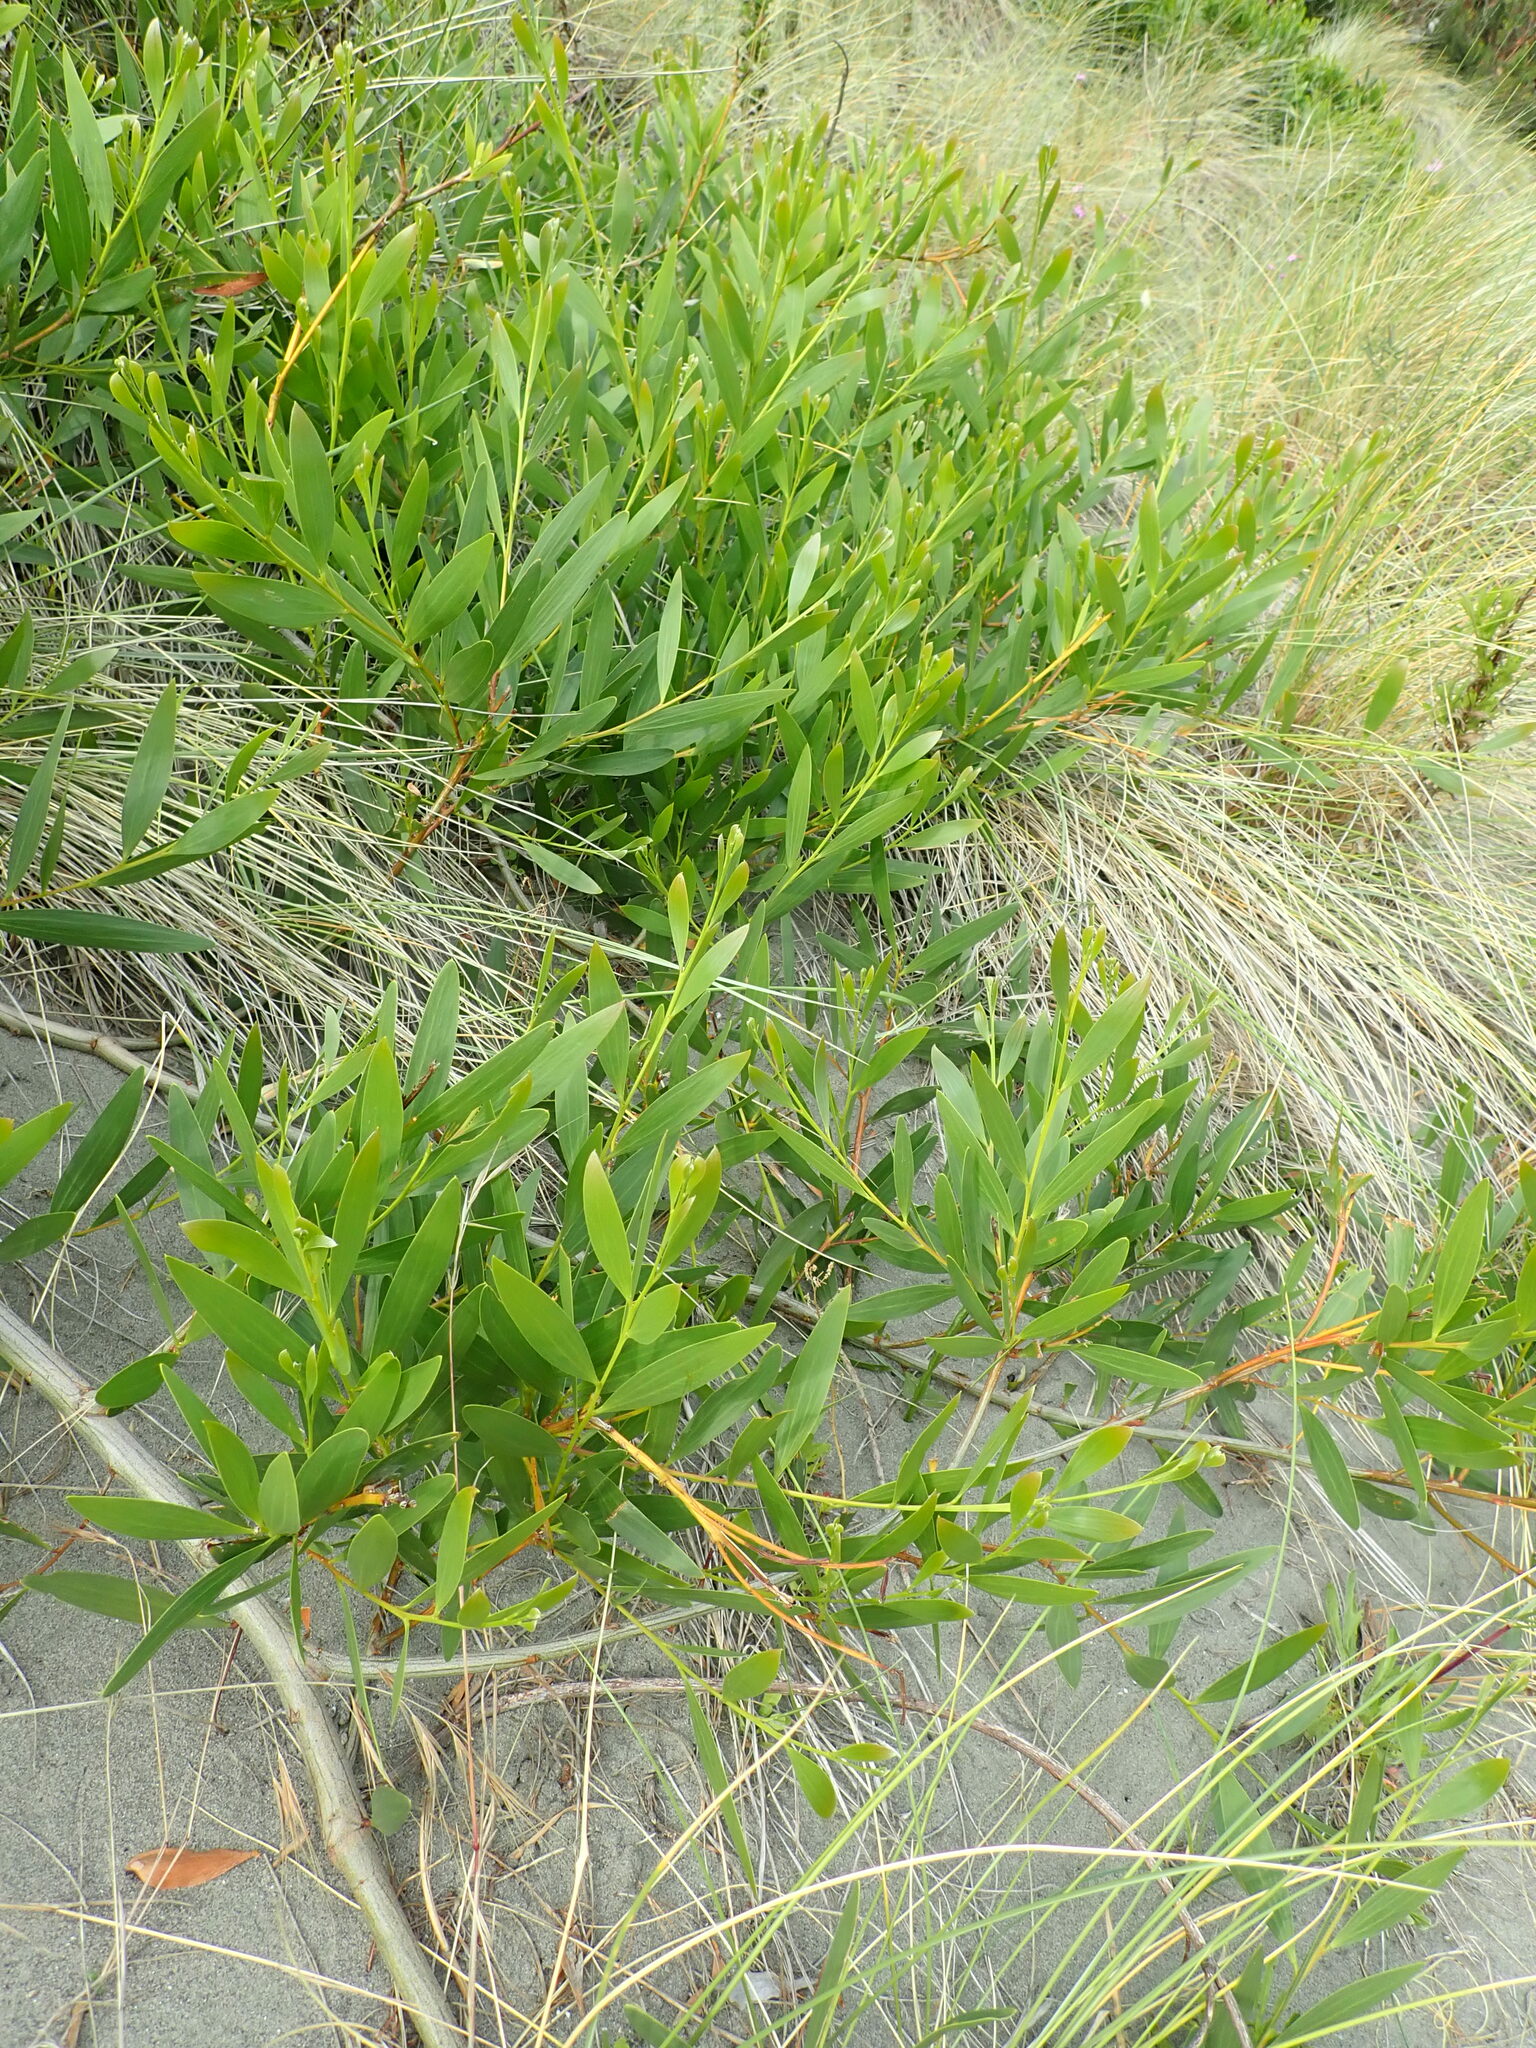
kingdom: Plantae
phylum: Tracheophyta
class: Magnoliopsida
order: Fabales
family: Fabaceae
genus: Acacia
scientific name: Acacia longifolia
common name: Sydney golden wattle
